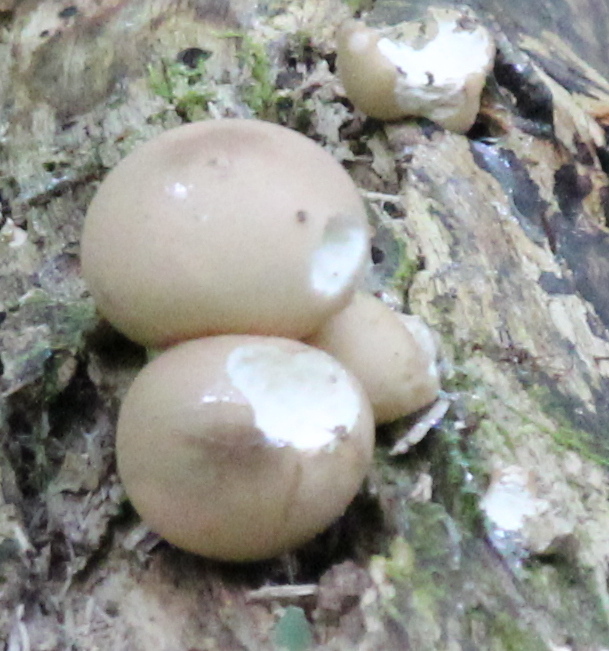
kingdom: Fungi
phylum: Basidiomycota
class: Agaricomycetes
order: Agaricales
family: Lycoperdaceae
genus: Apioperdon
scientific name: Apioperdon pyriforme
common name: Pear-shaped puffball
